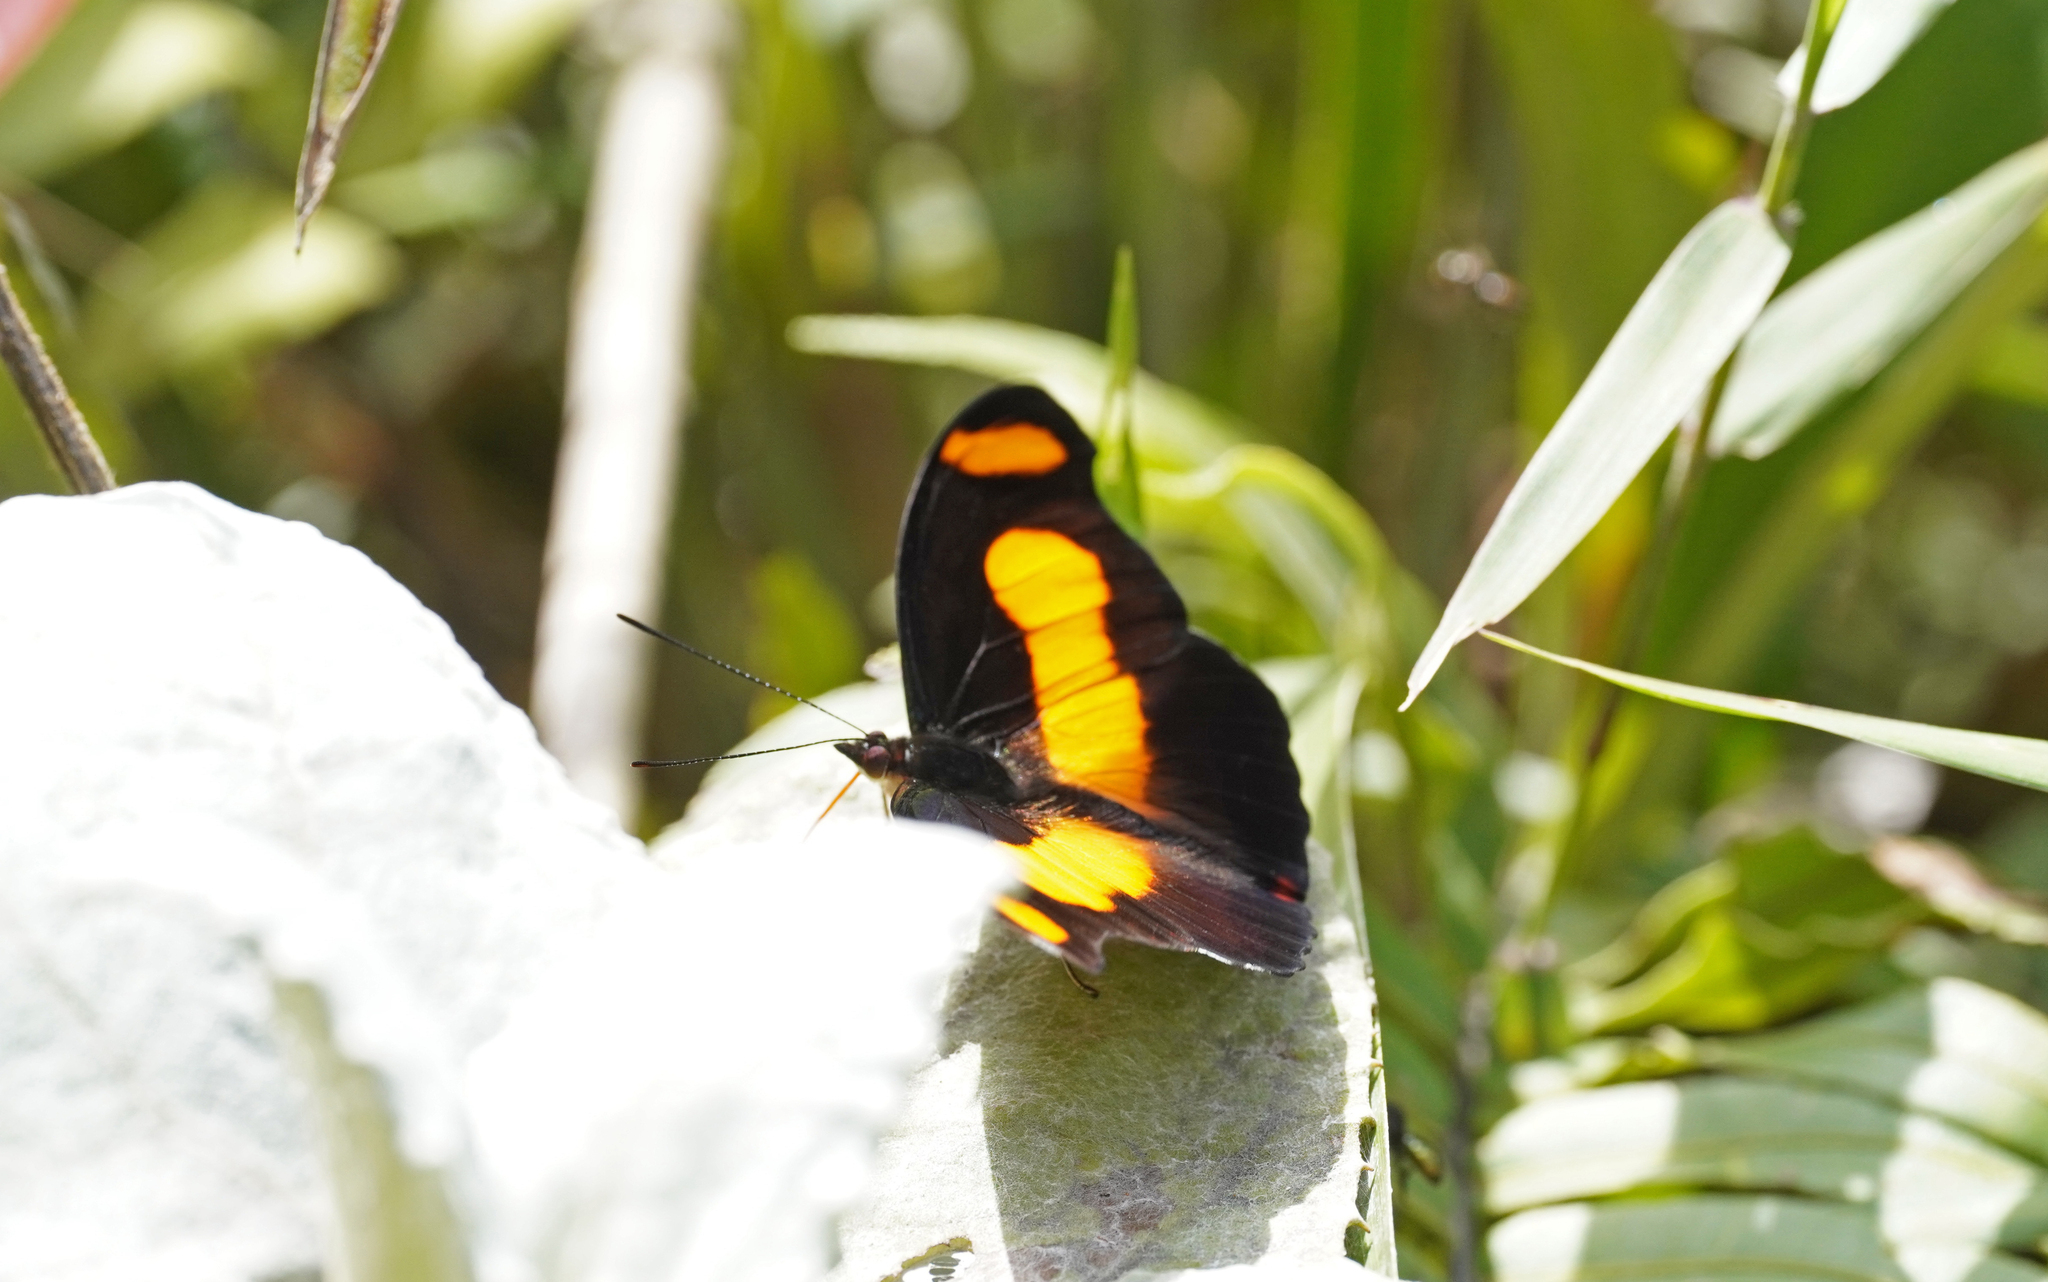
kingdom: Animalia
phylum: Arthropoda
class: Insecta
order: Lepidoptera
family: Nymphalidae
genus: Catonephele
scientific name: Catonephele chromis
